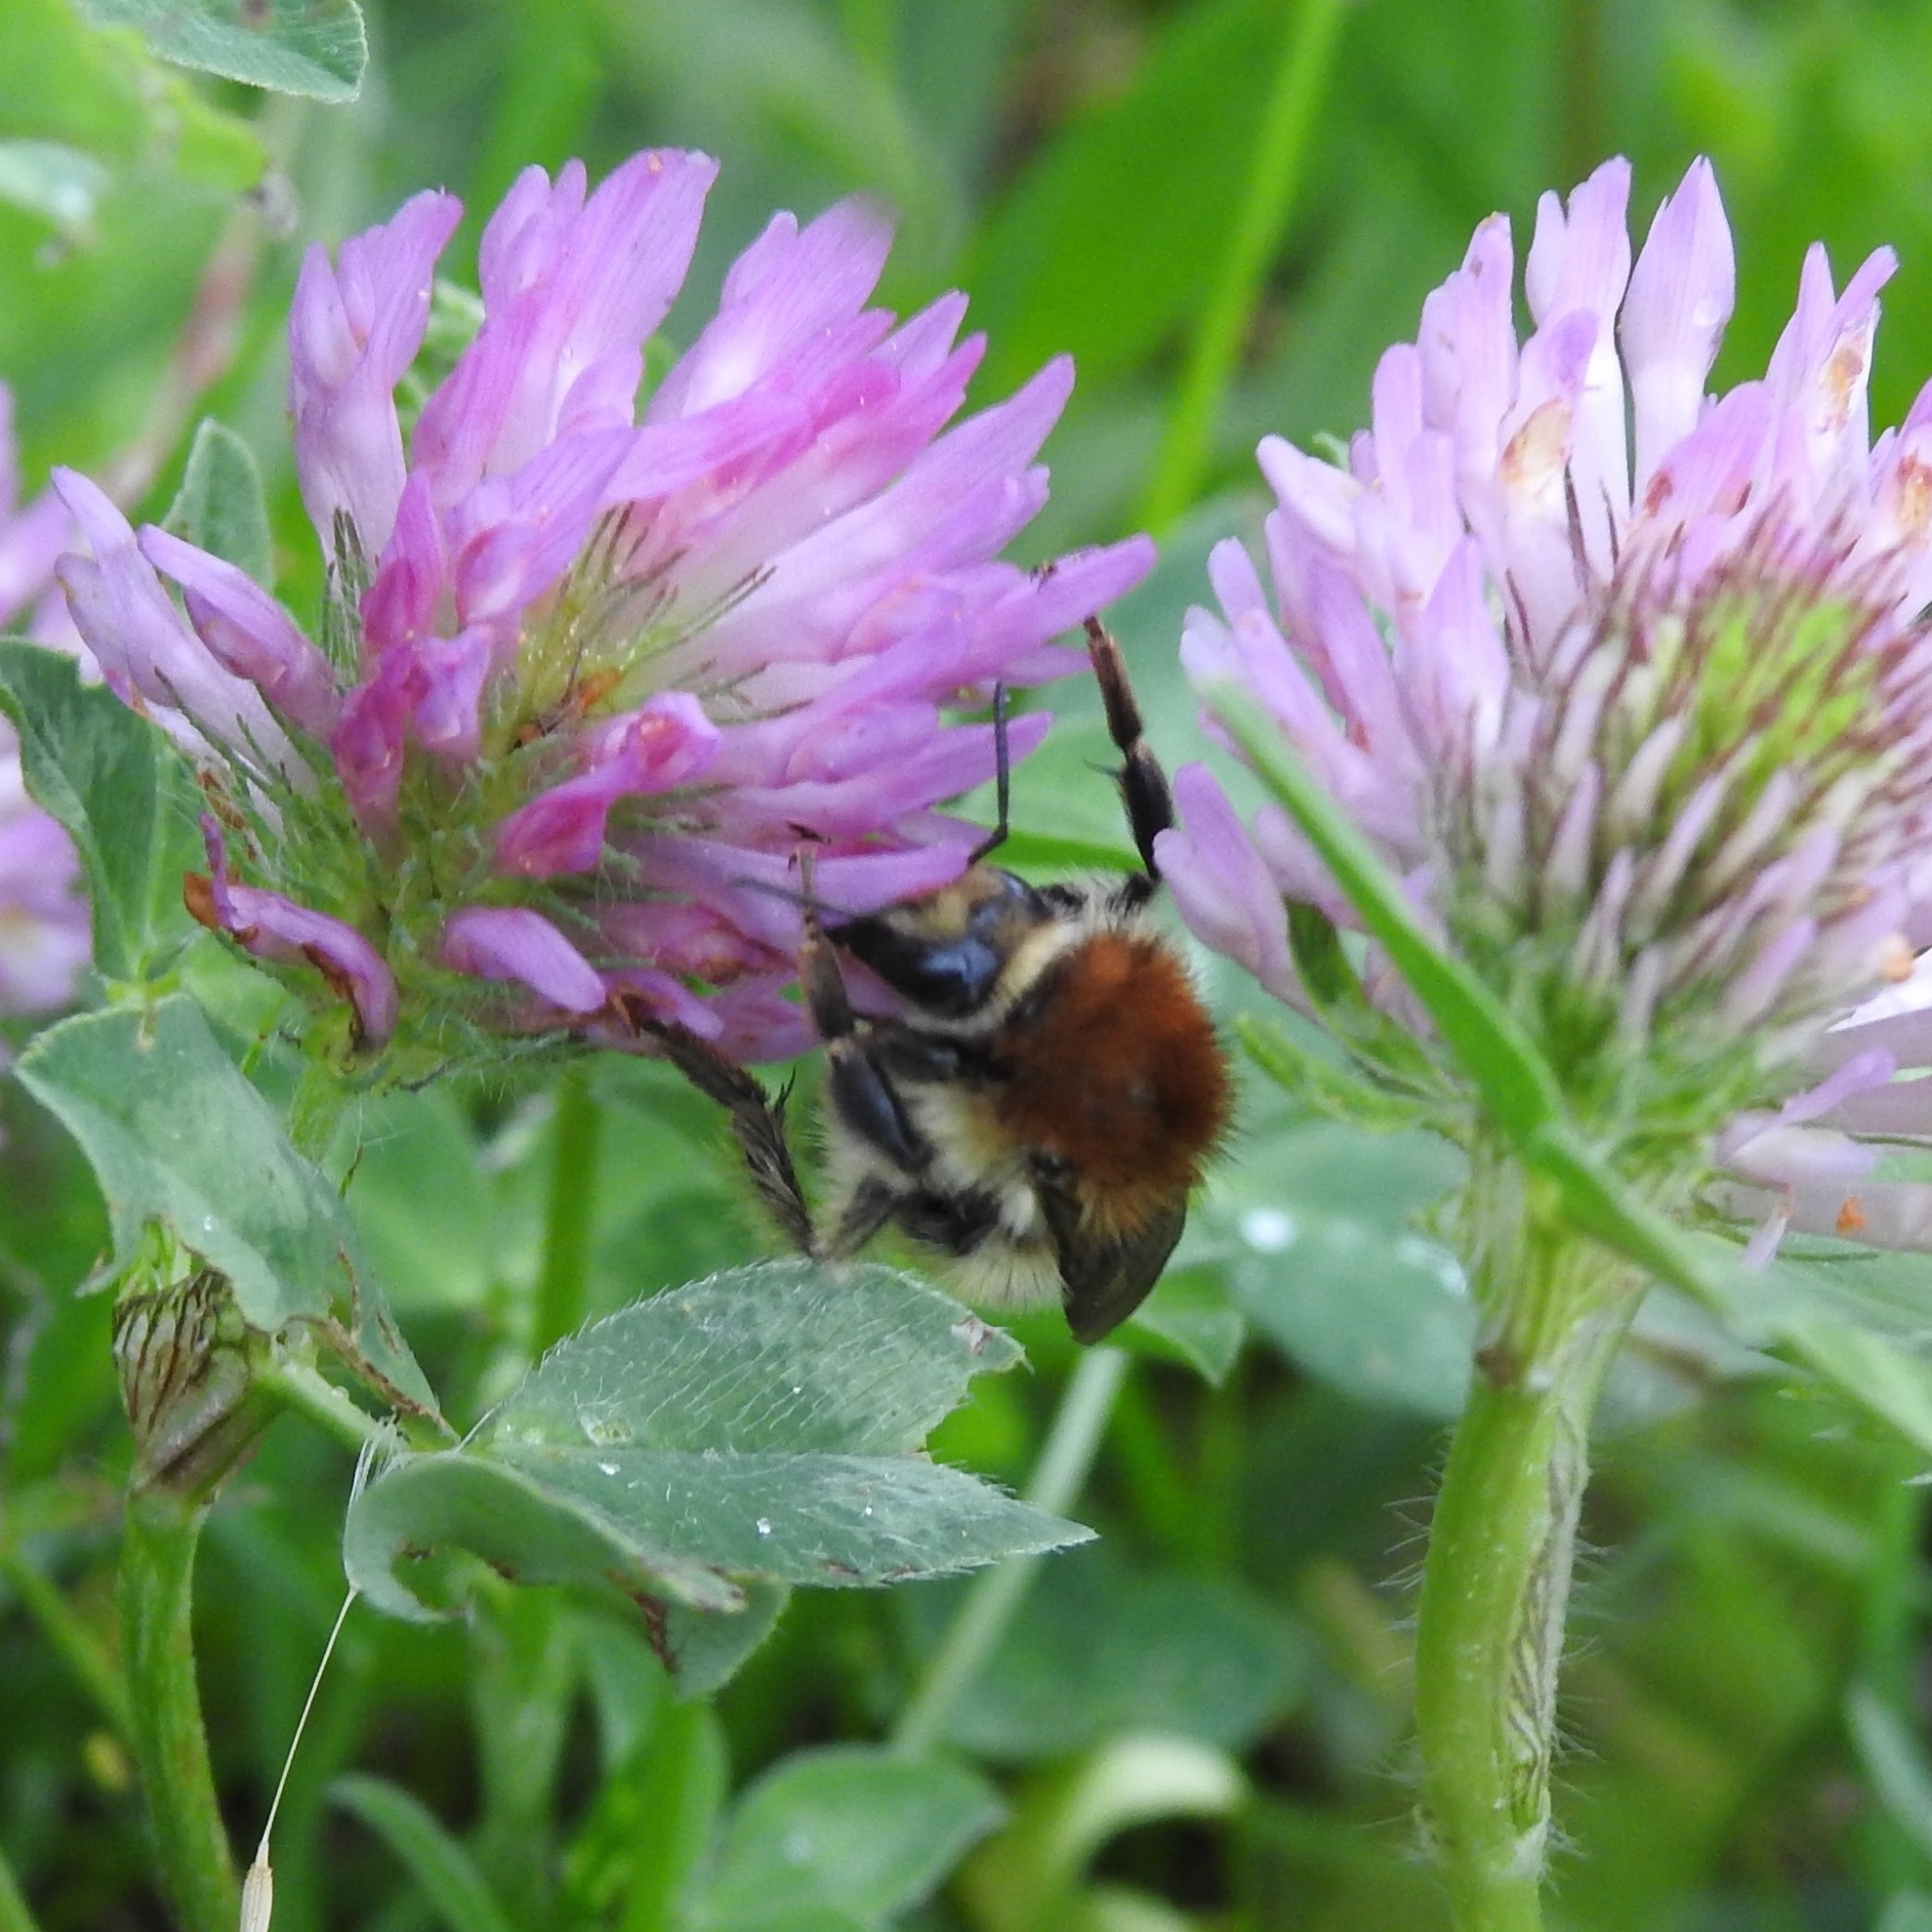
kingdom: Animalia
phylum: Arthropoda
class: Insecta
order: Hymenoptera
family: Apidae
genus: Bombus
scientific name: Bombus humilis
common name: Brown-banded carder-bee
